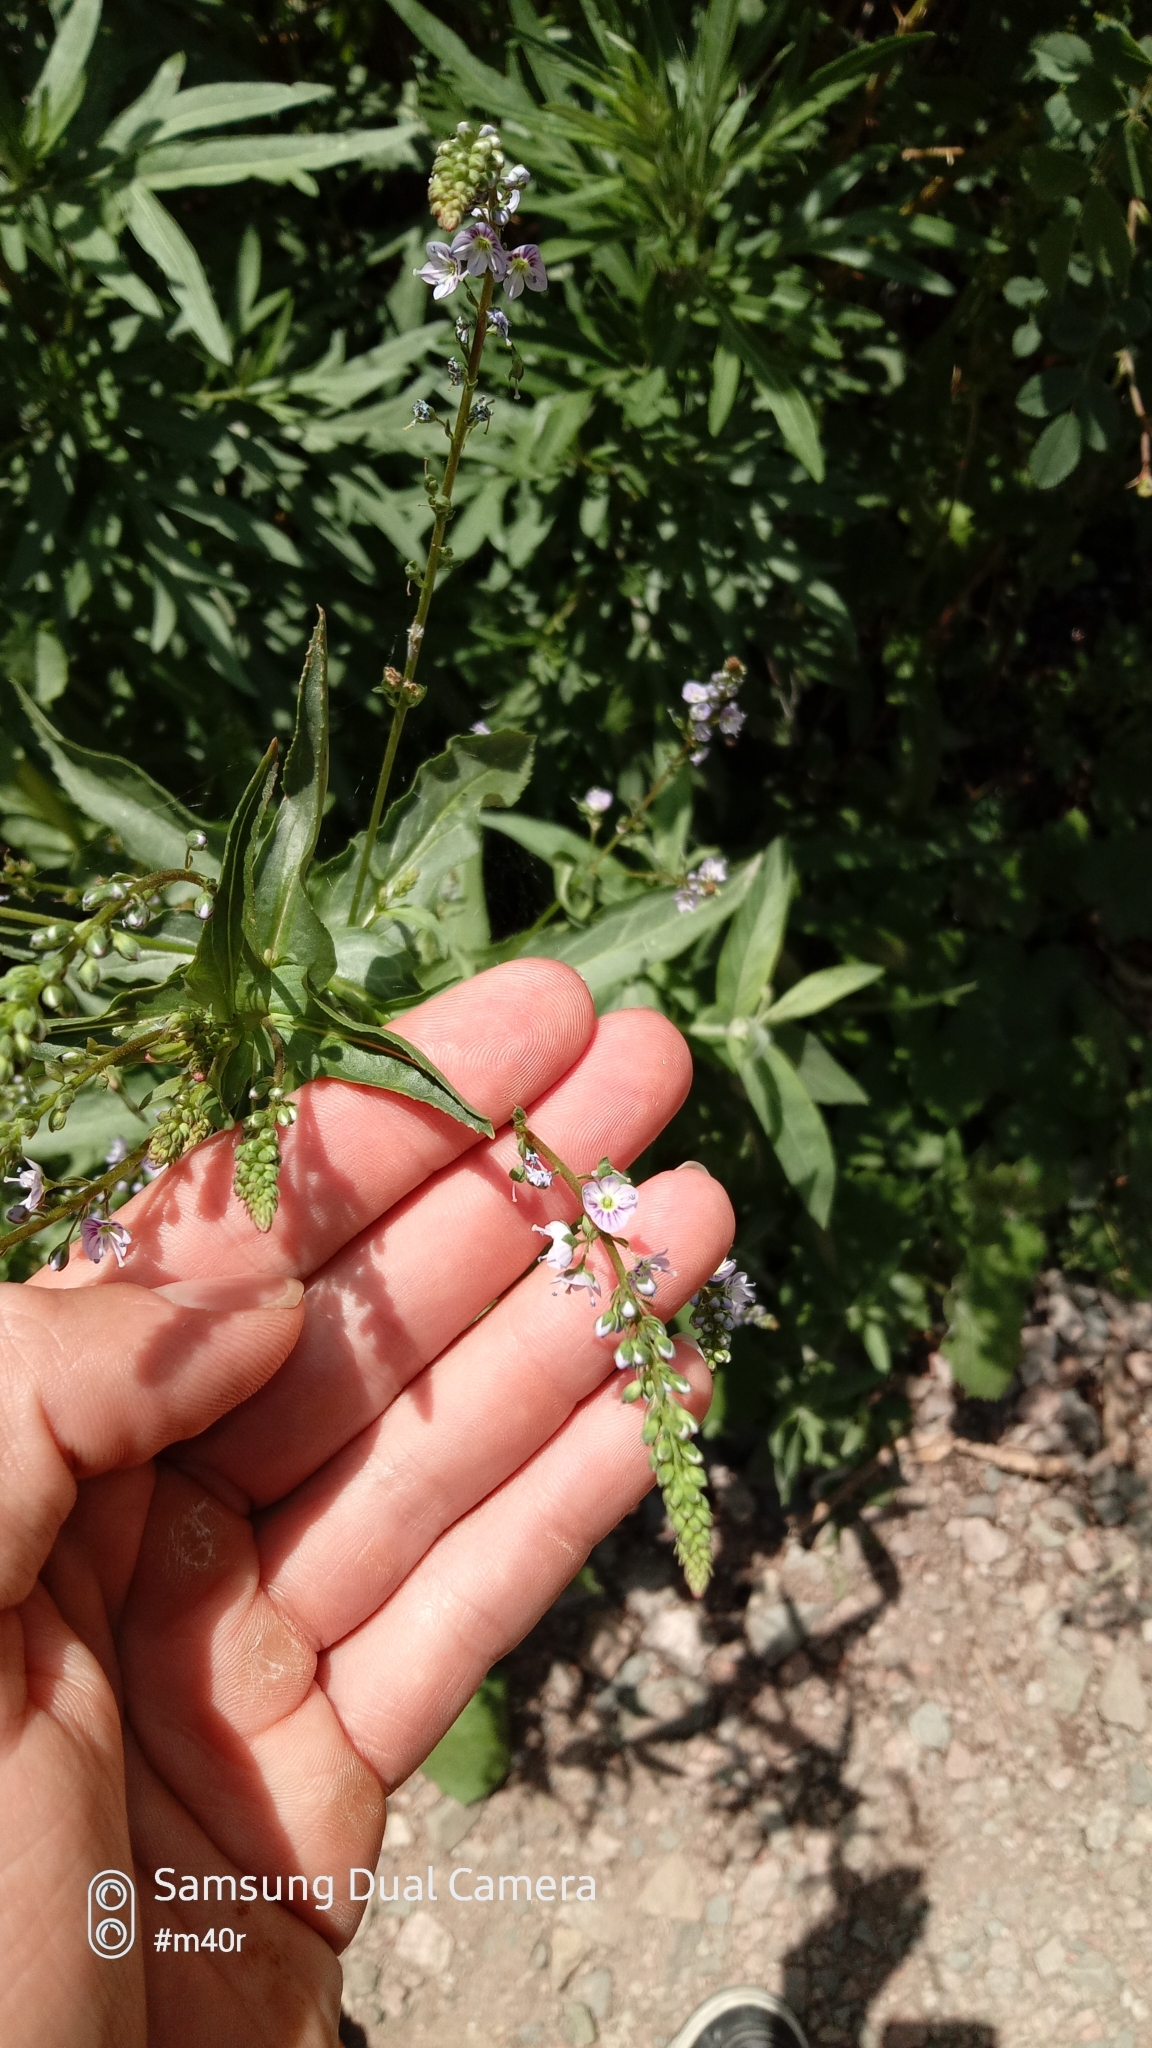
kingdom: Plantae
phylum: Tracheophyta
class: Magnoliopsida
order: Lamiales
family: Plantaginaceae
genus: Veronica
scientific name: Veronica anagallis-aquatica
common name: Water speedwell
